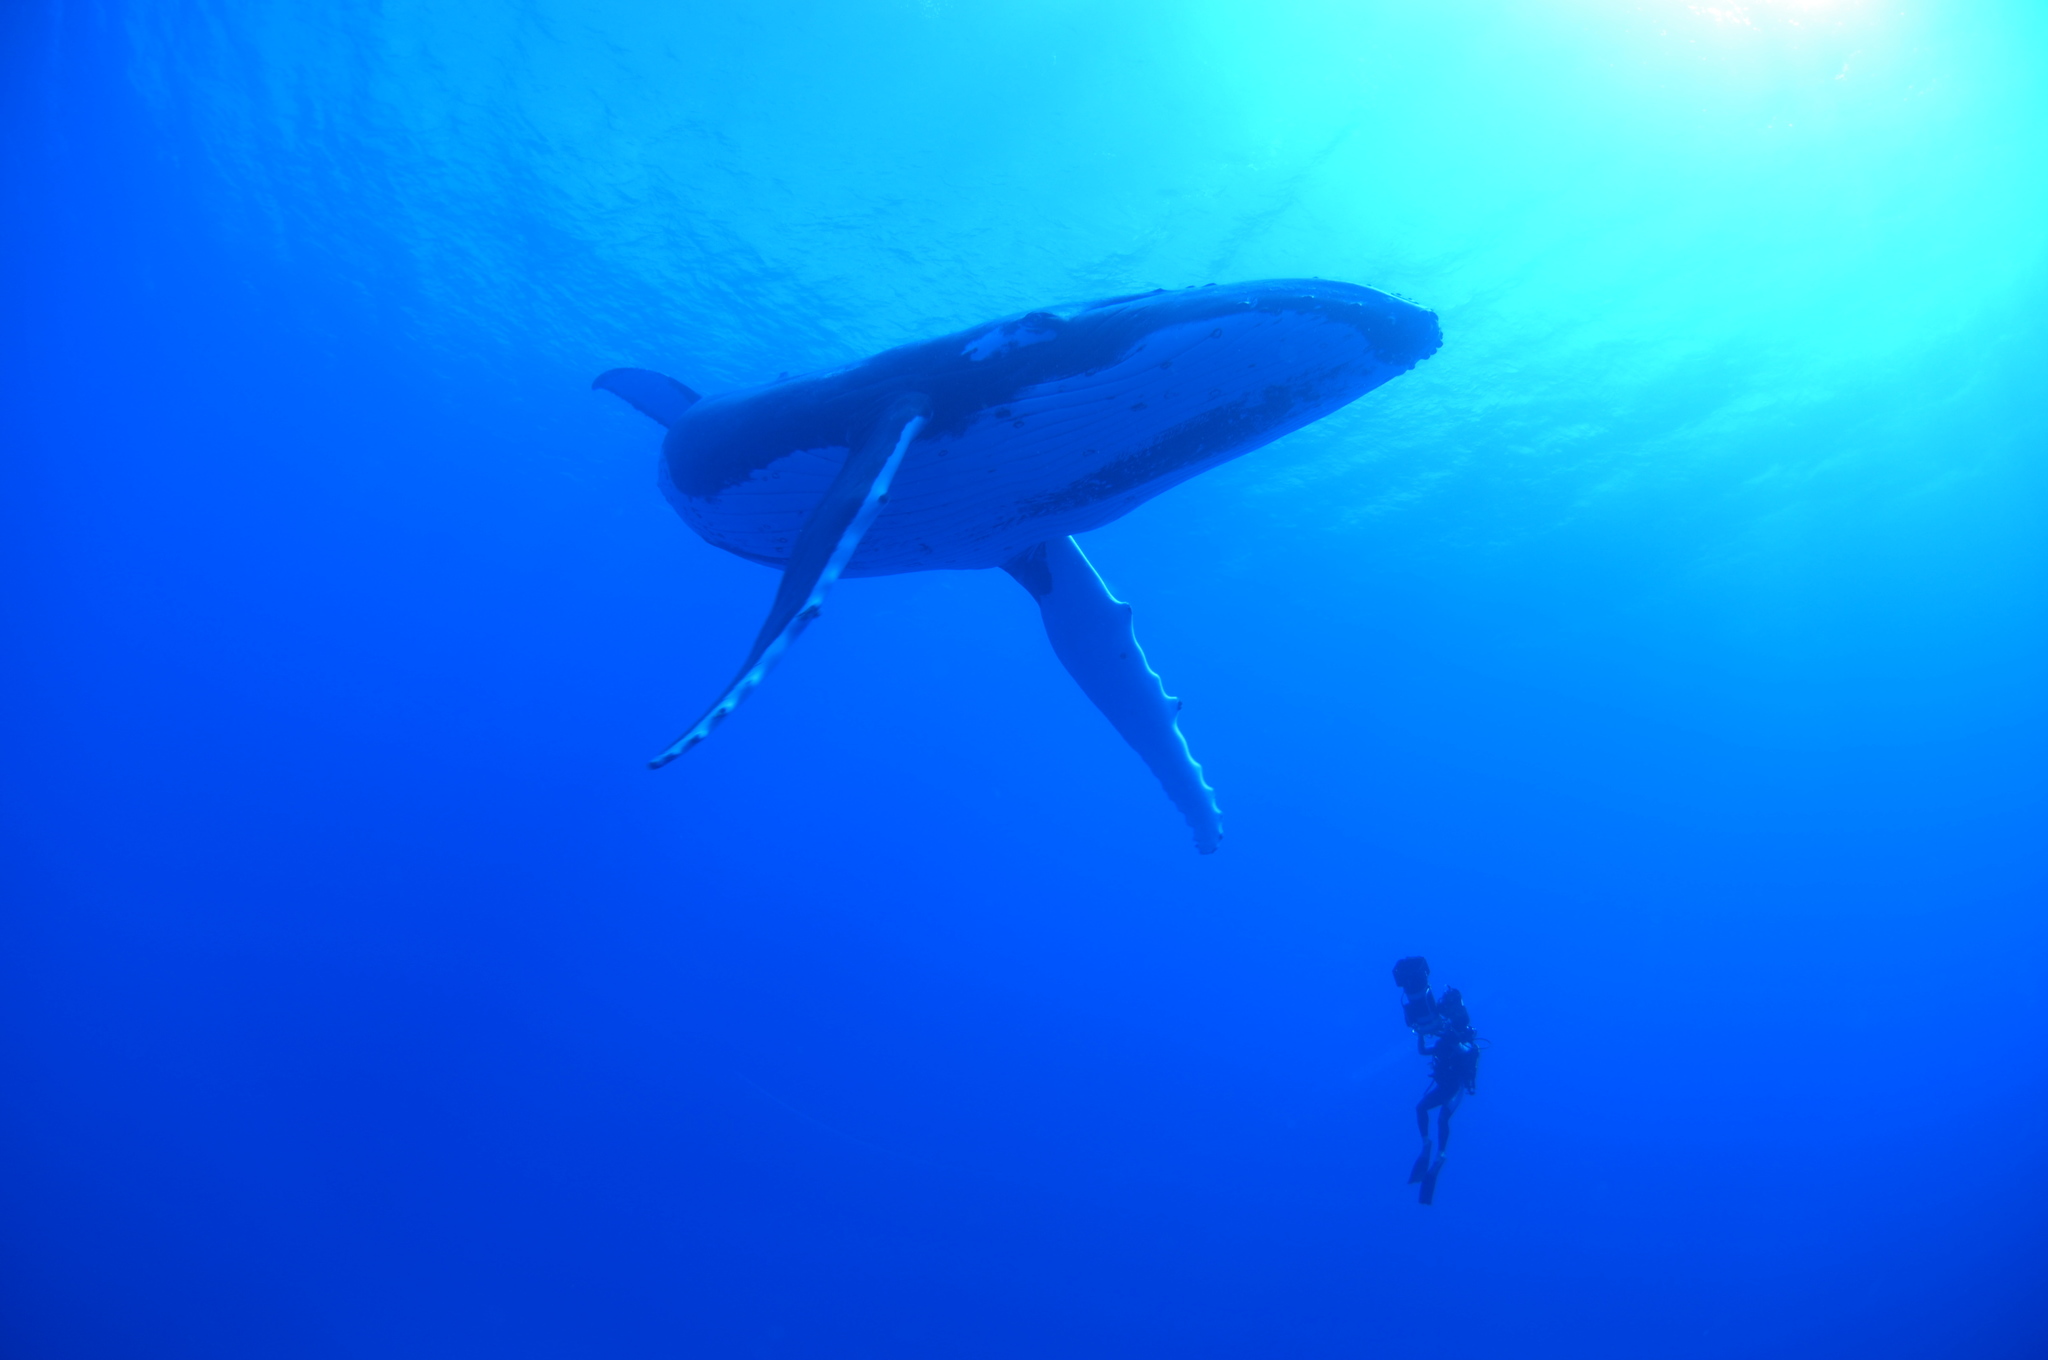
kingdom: Animalia
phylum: Chordata
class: Mammalia
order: Cetacea
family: Balaenopteridae
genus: Megaptera
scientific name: Megaptera novaeangliae
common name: Humpback whale
